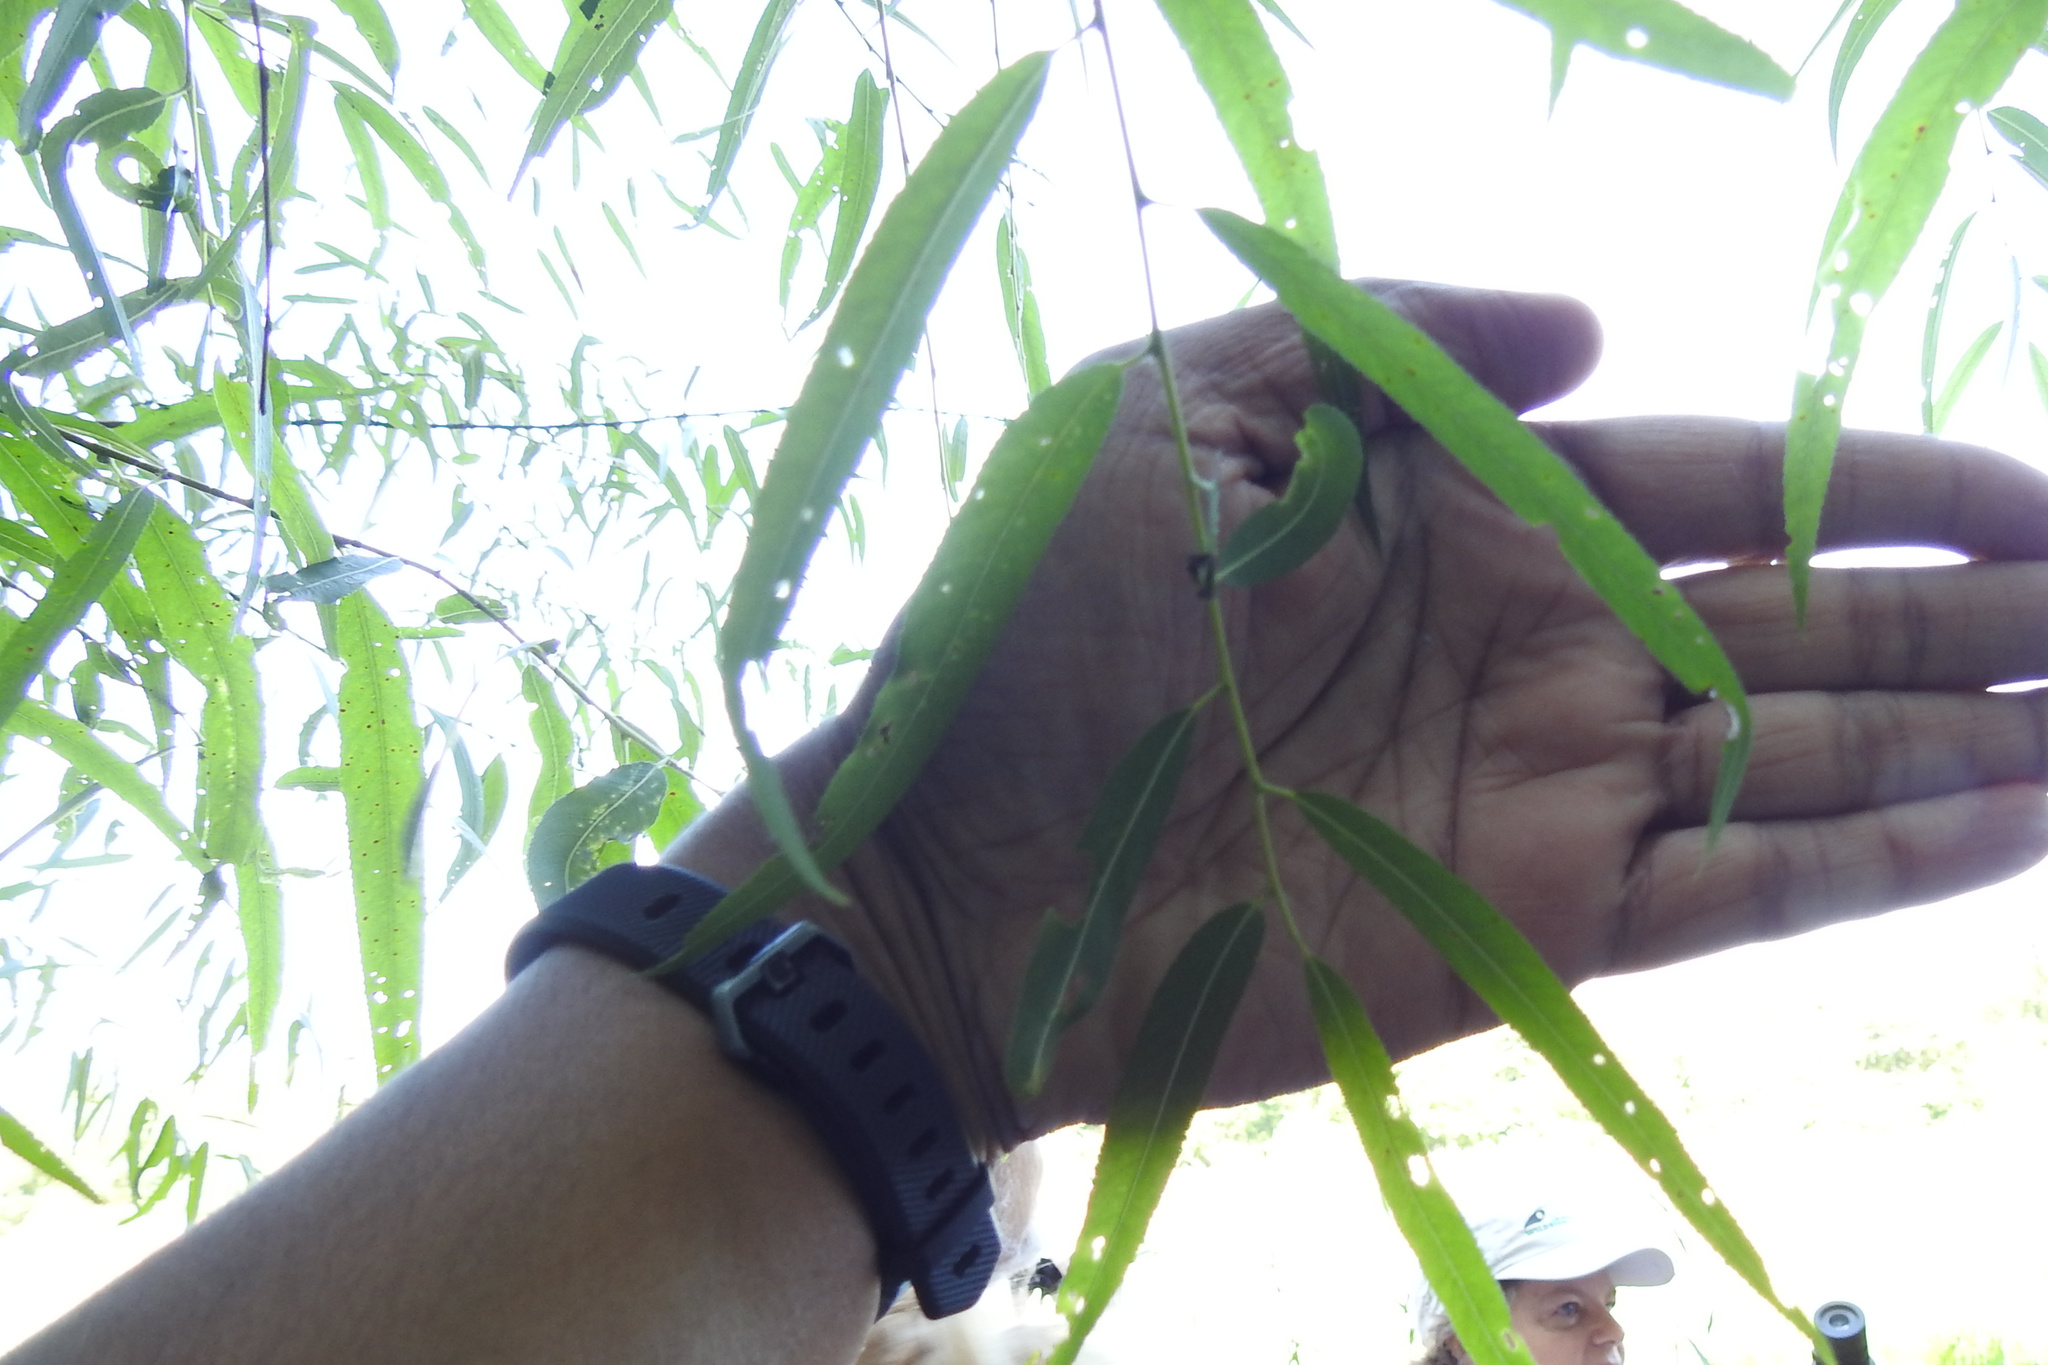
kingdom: Plantae
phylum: Tracheophyta
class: Magnoliopsida
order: Malpighiales
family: Salicaceae
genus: Salix
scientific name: Salix nigra
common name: Black willow
